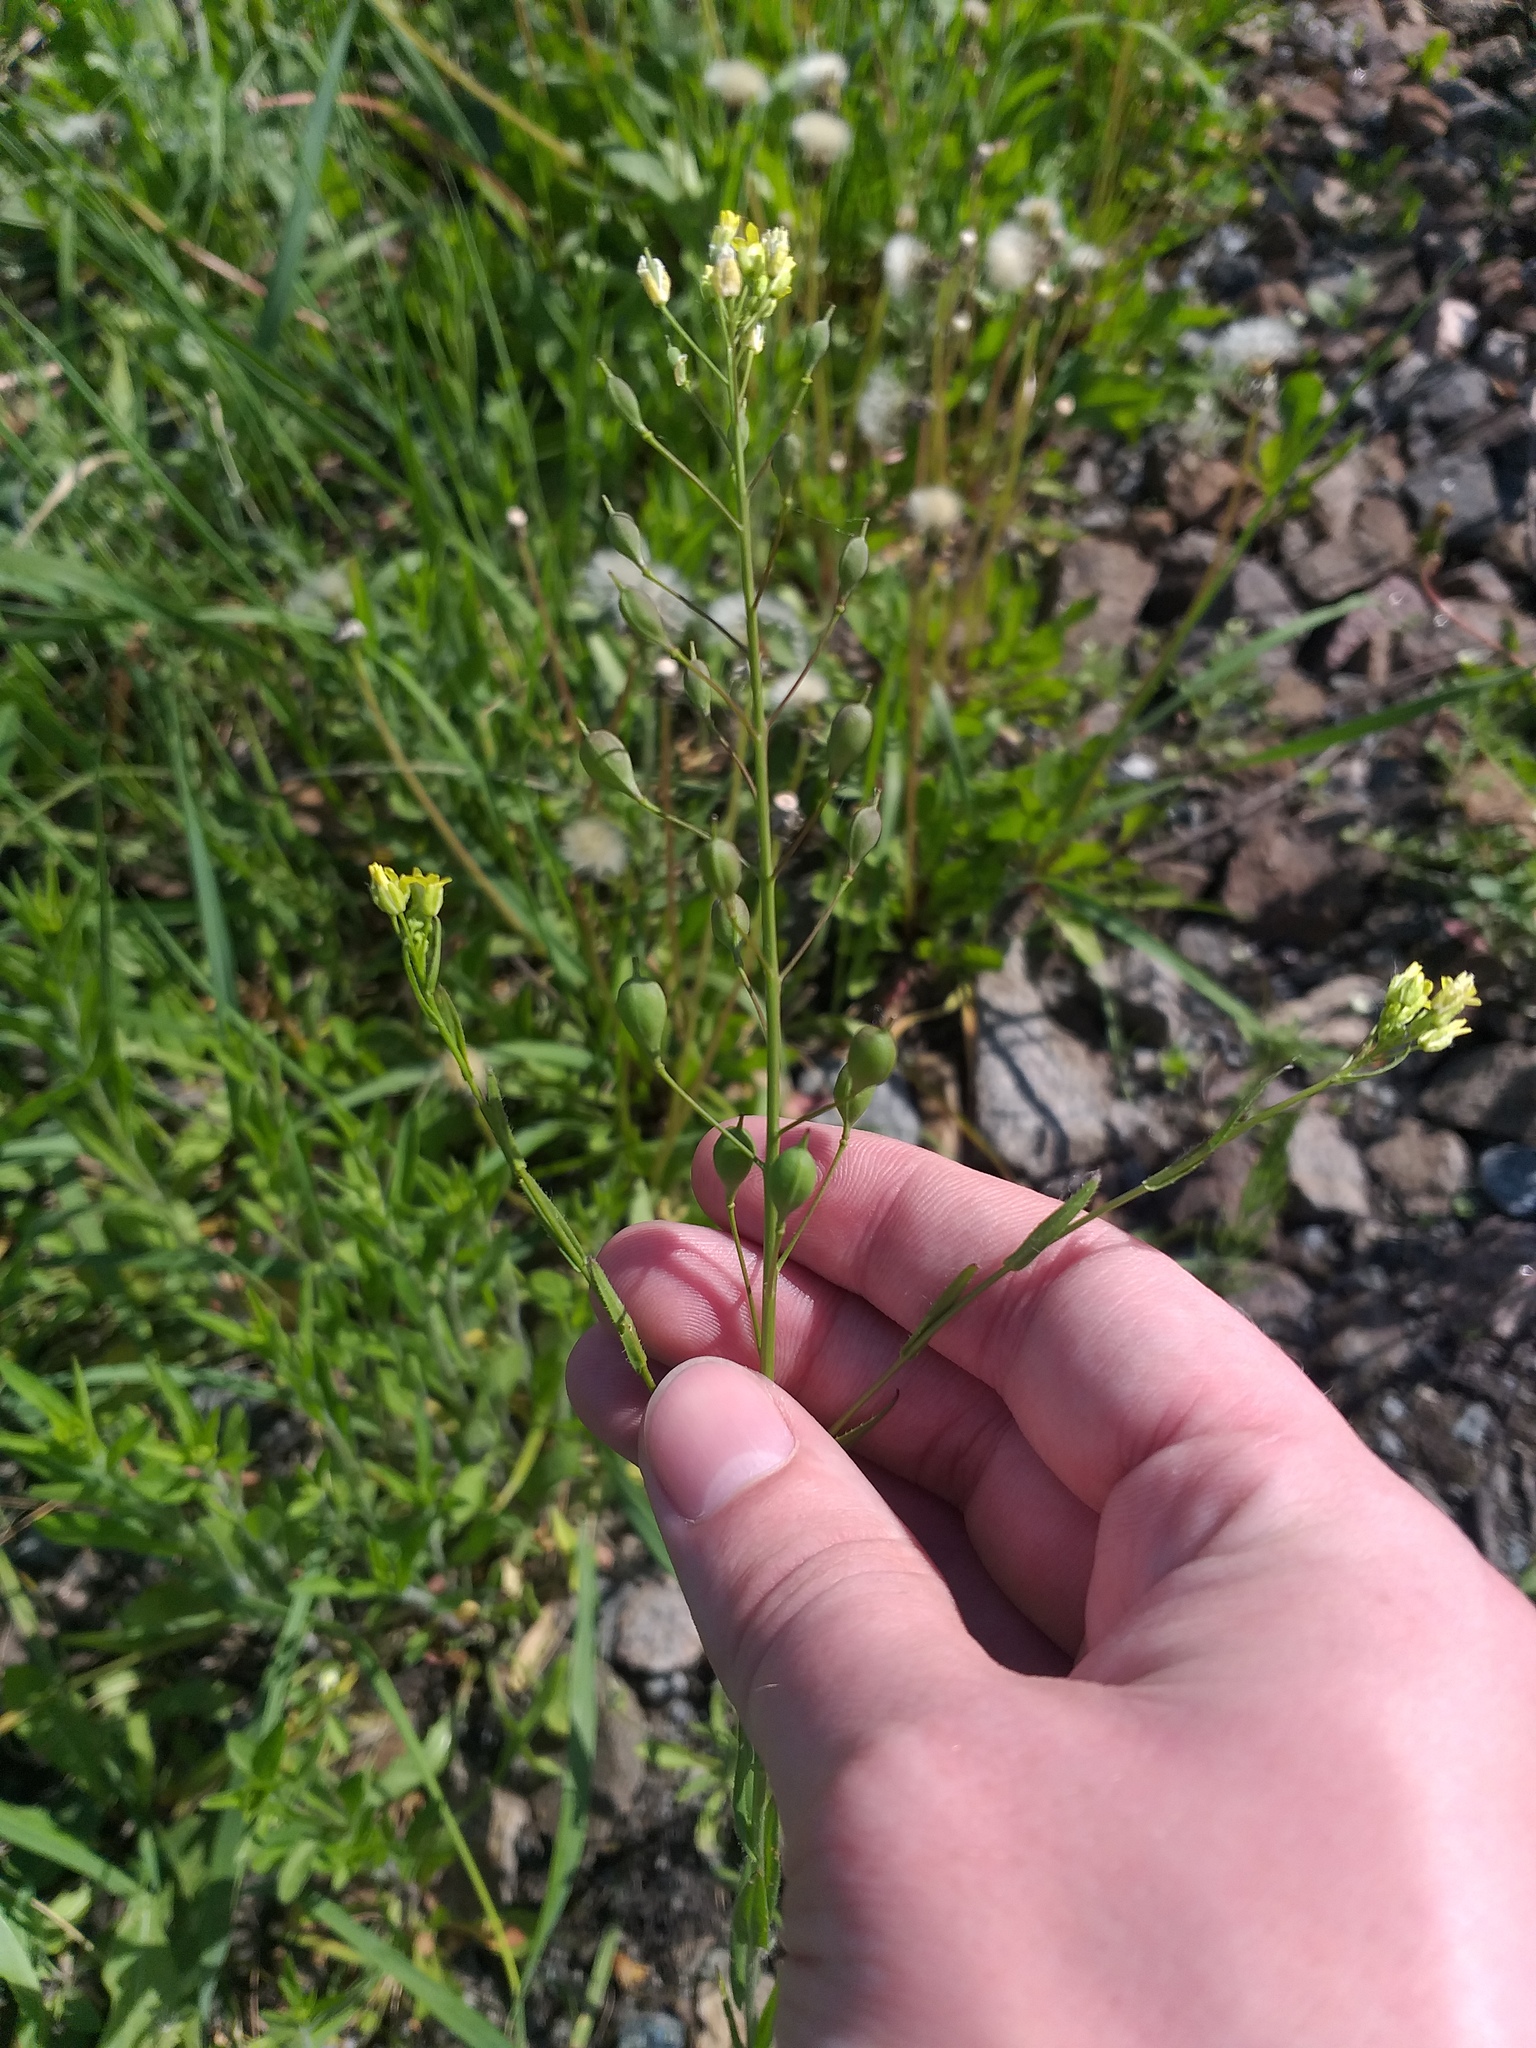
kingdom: Plantae
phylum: Tracheophyta
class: Magnoliopsida
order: Brassicales
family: Brassicaceae
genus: Camelina
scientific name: Camelina sativa
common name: Gold-of-pleasure
